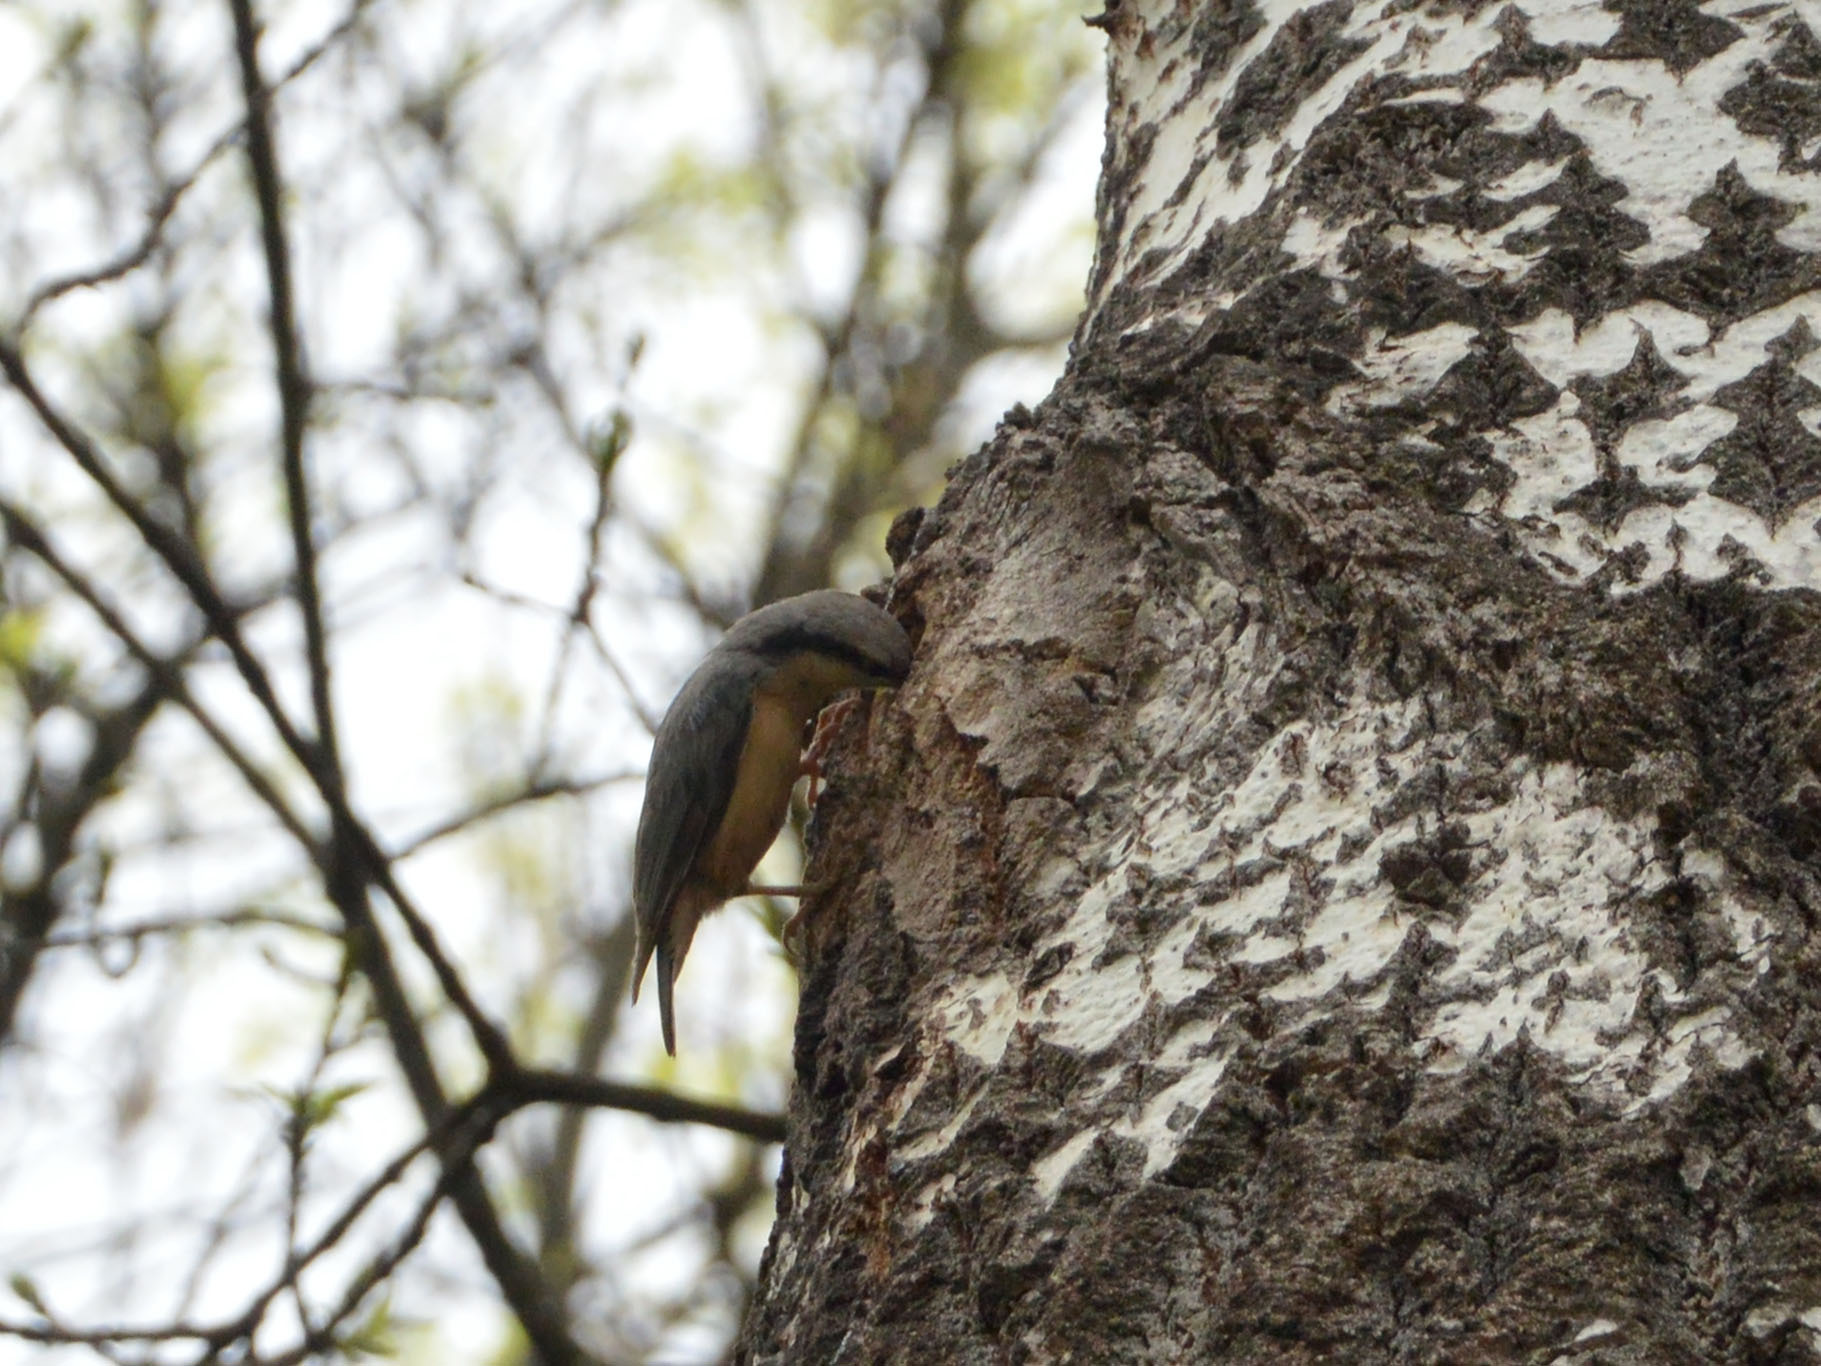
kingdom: Animalia
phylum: Chordata
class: Aves
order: Passeriformes
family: Sittidae
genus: Sitta
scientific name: Sitta europaea
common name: Eurasian nuthatch
